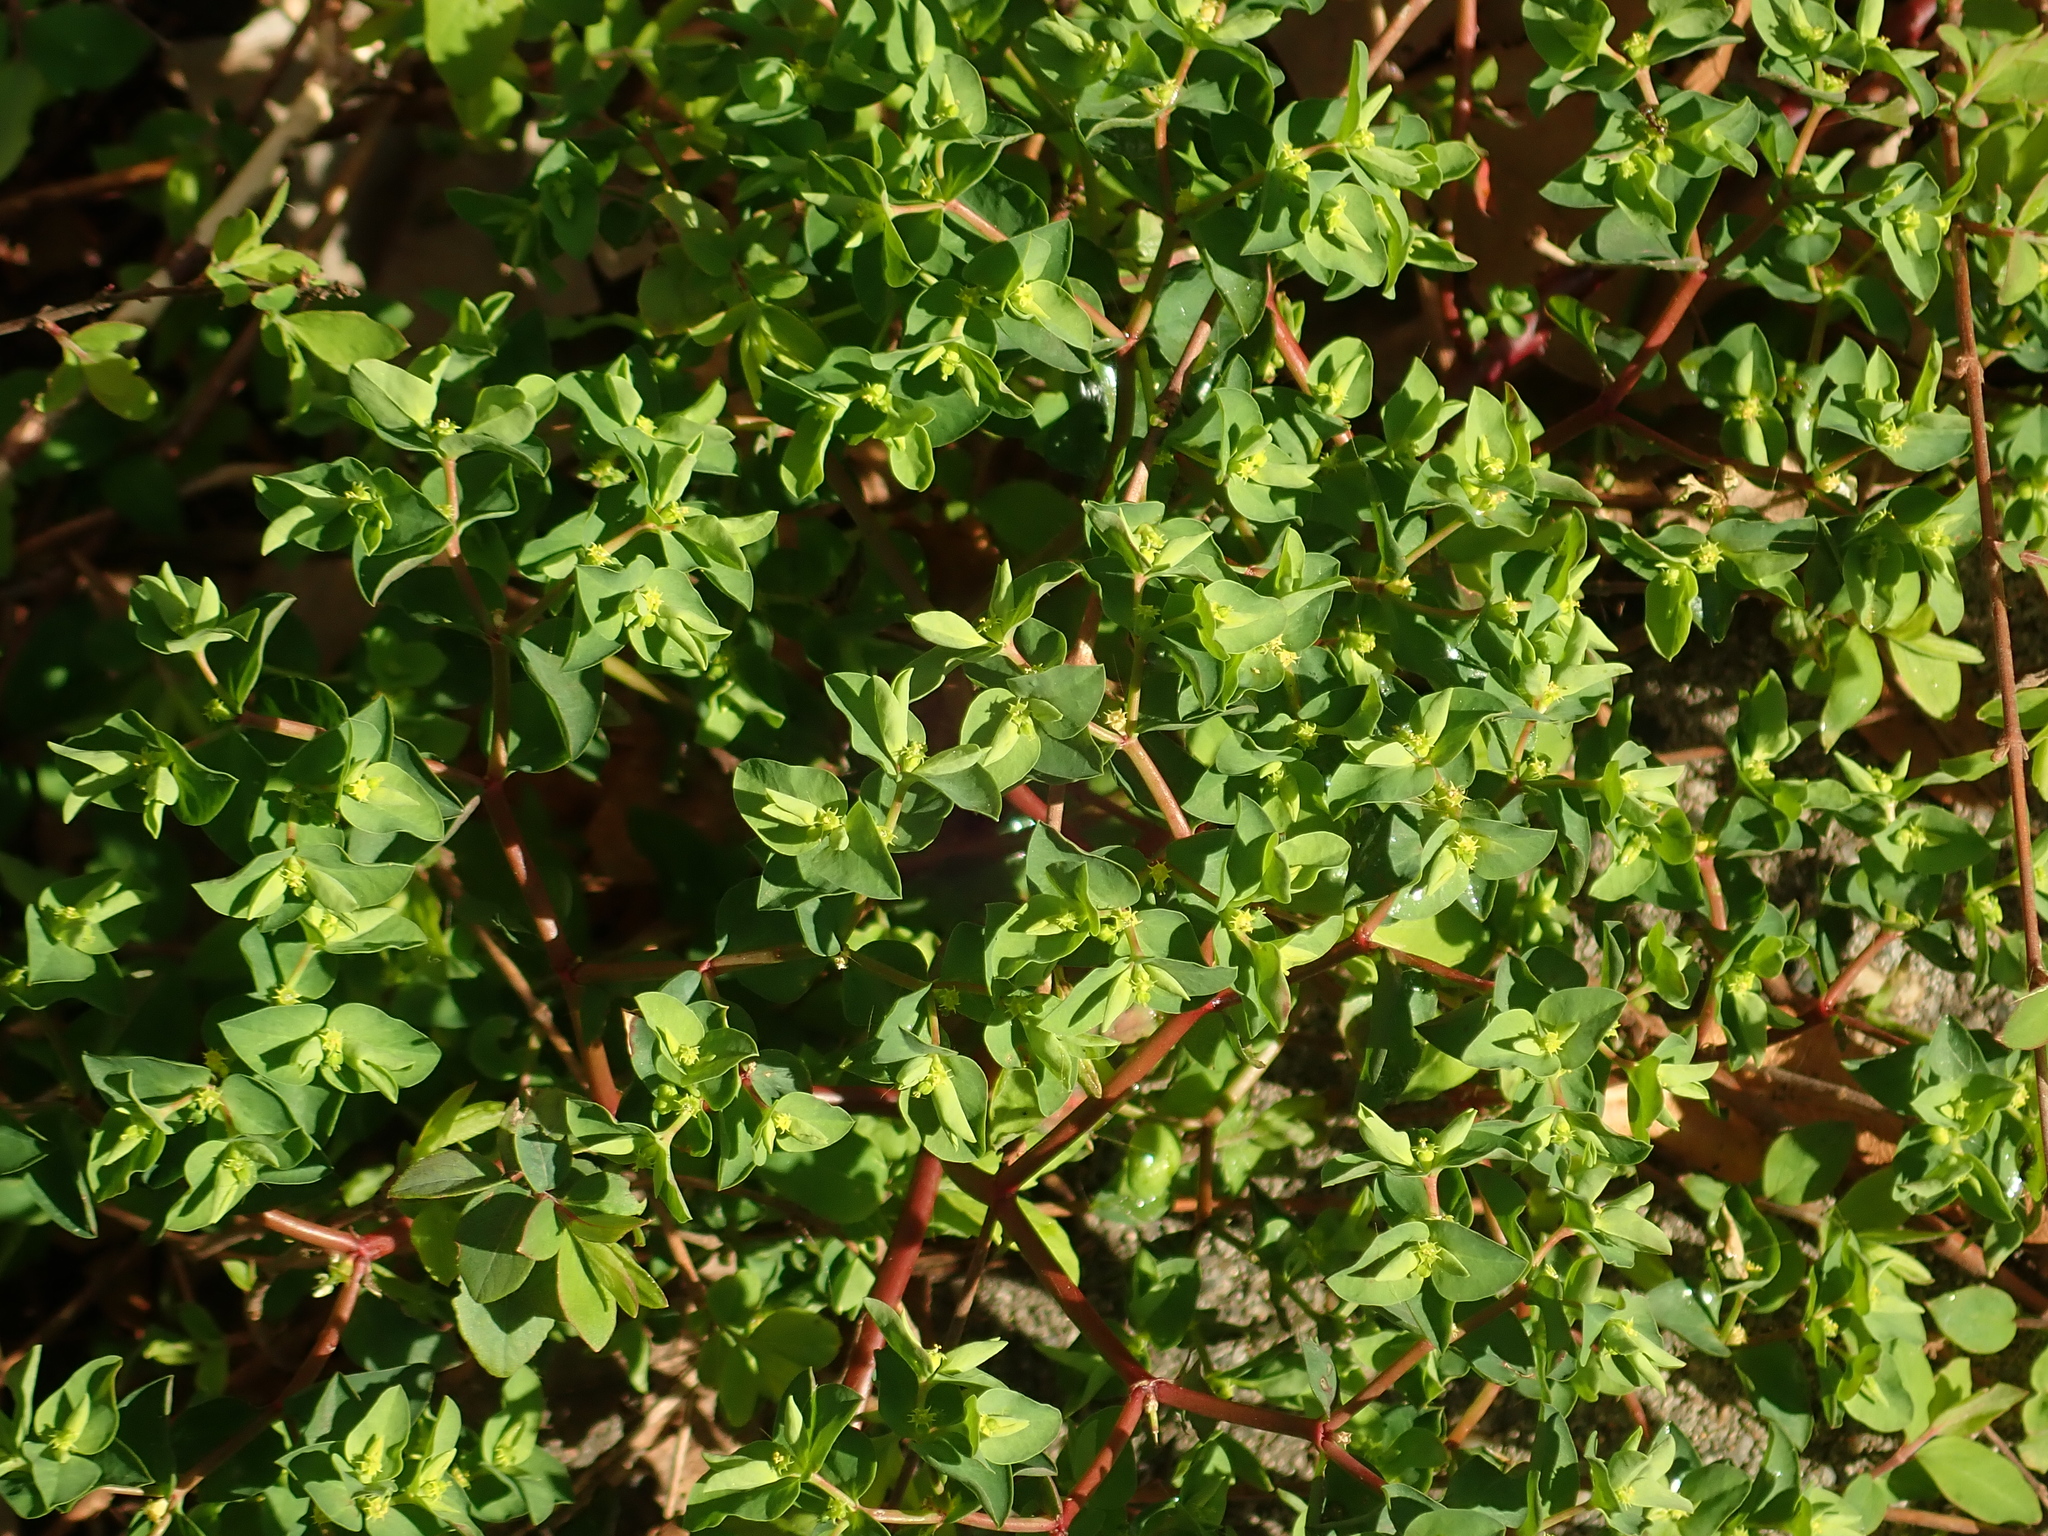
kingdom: Plantae
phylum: Tracheophyta
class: Magnoliopsida
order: Malpighiales
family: Euphorbiaceae
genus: Euphorbia
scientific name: Euphorbia peplus
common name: Petty spurge
